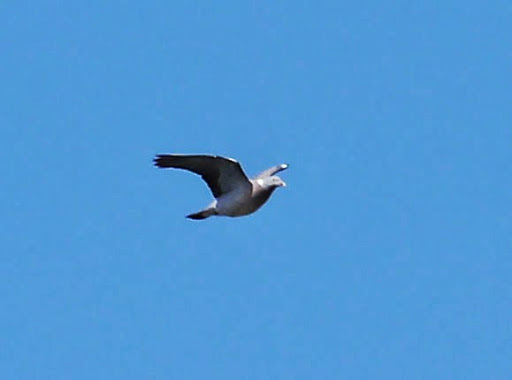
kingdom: Animalia
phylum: Chordata
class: Aves
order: Columbiformes
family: Columbidae
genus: Columba
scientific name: Columba palumbus
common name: Common wood pigeon
